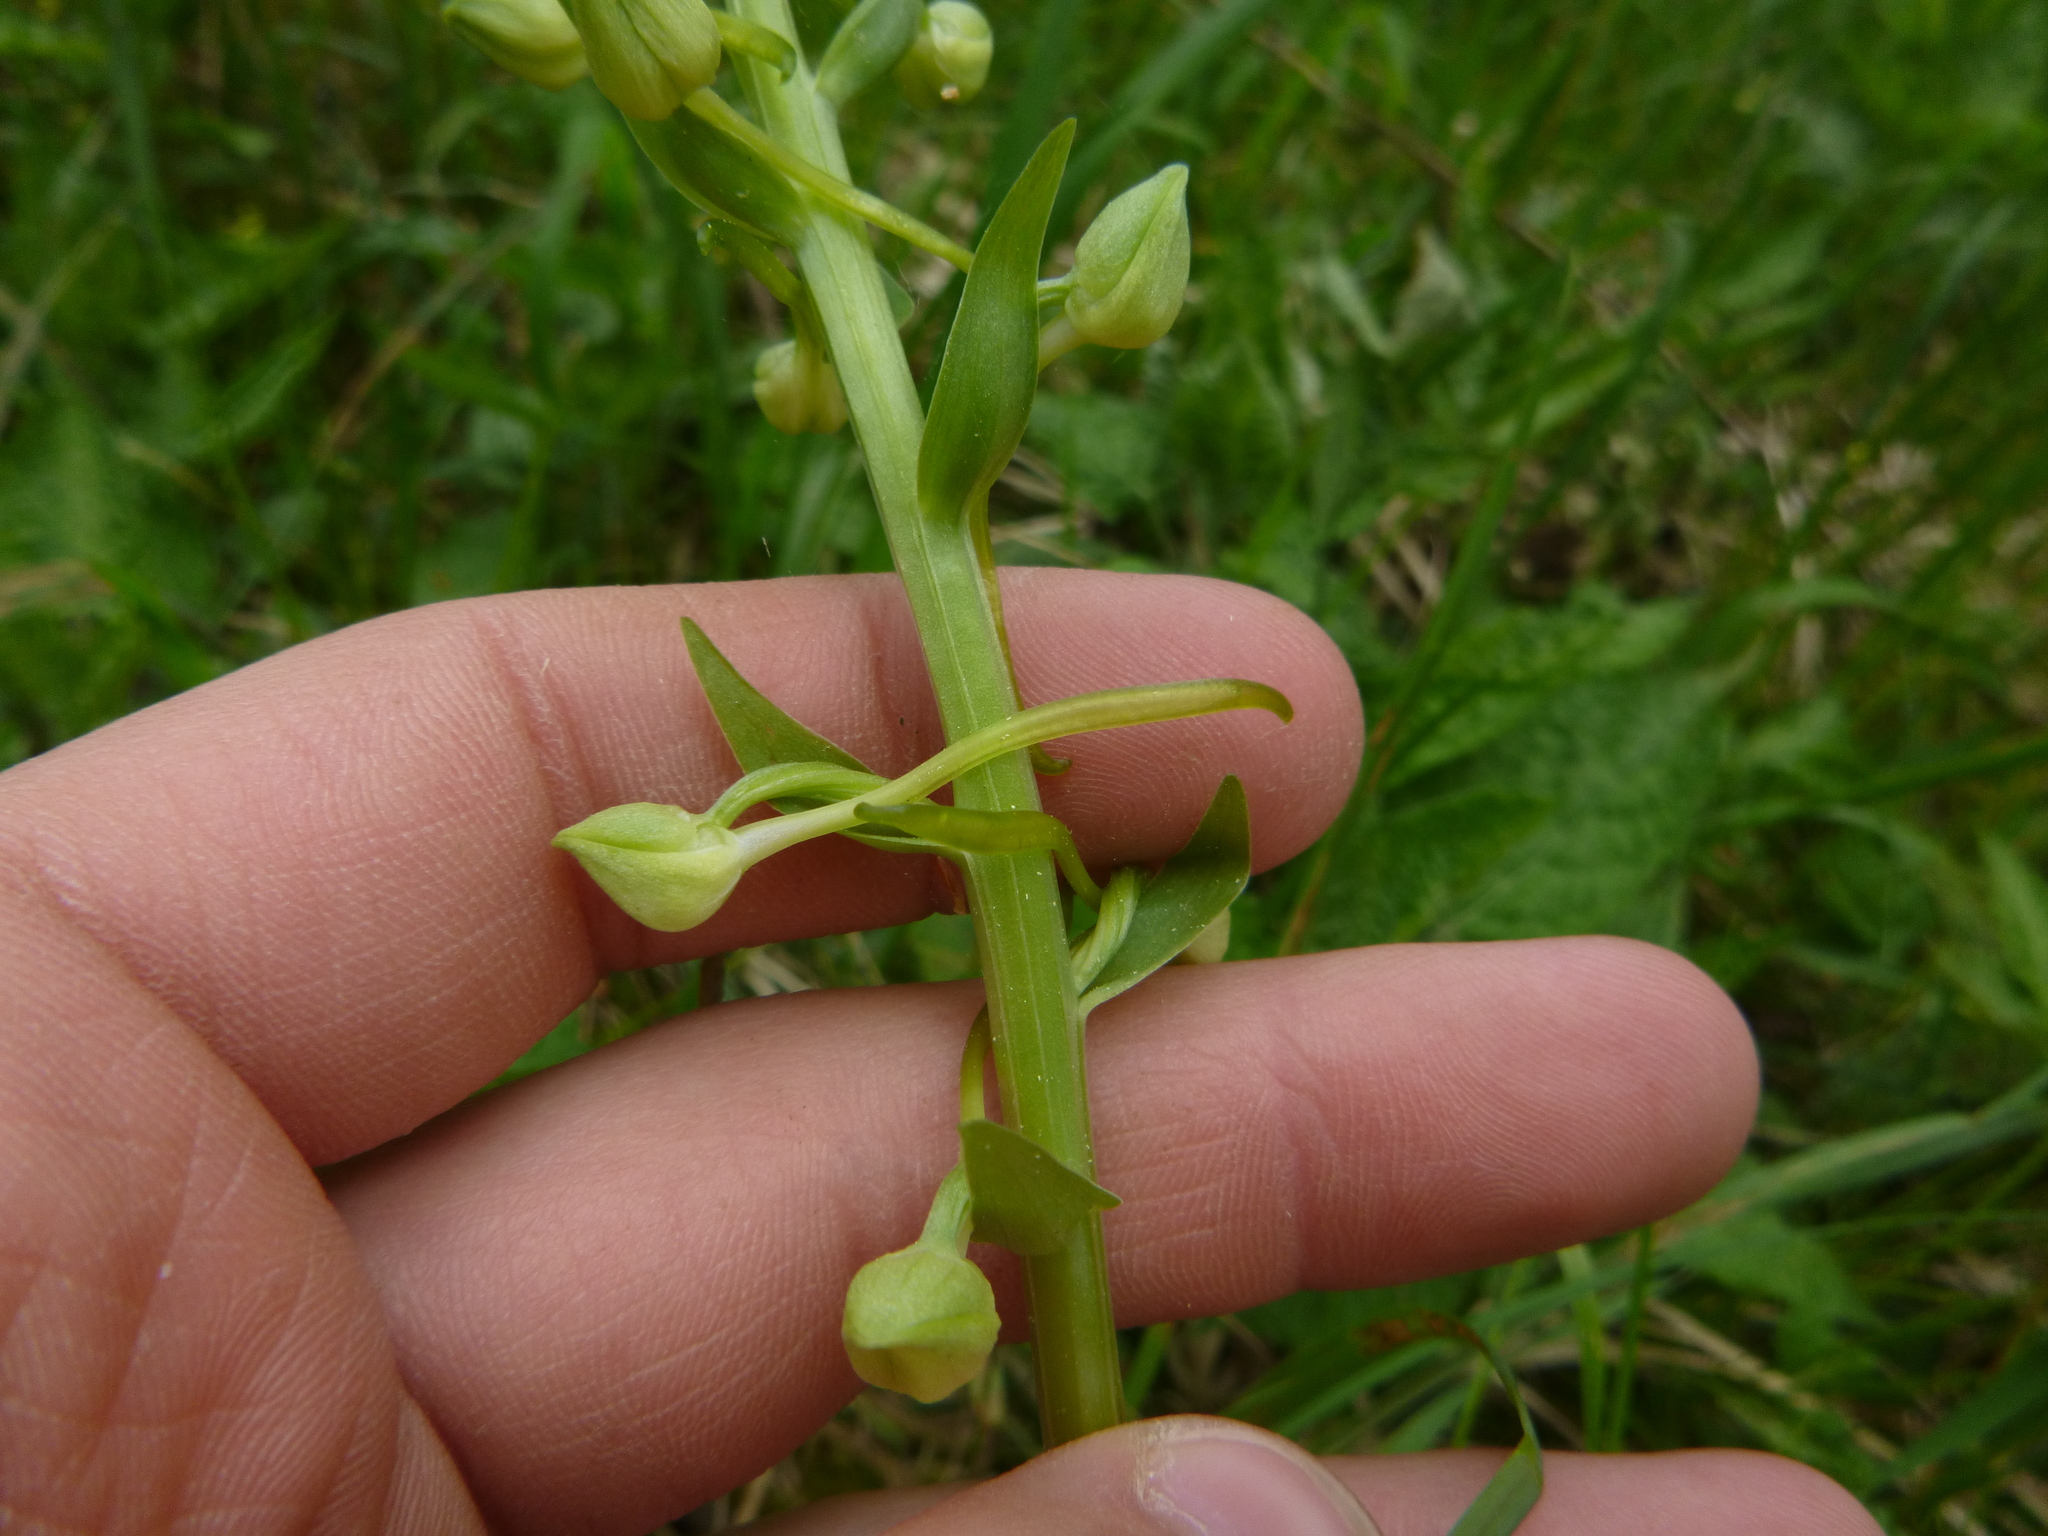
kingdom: Plantae
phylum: Tracheophyta
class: Liliopsida
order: Asparagales
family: Orchidaceae
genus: Platanthera
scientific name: Platanthera chlorantha
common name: Greater butterfly-orchid
